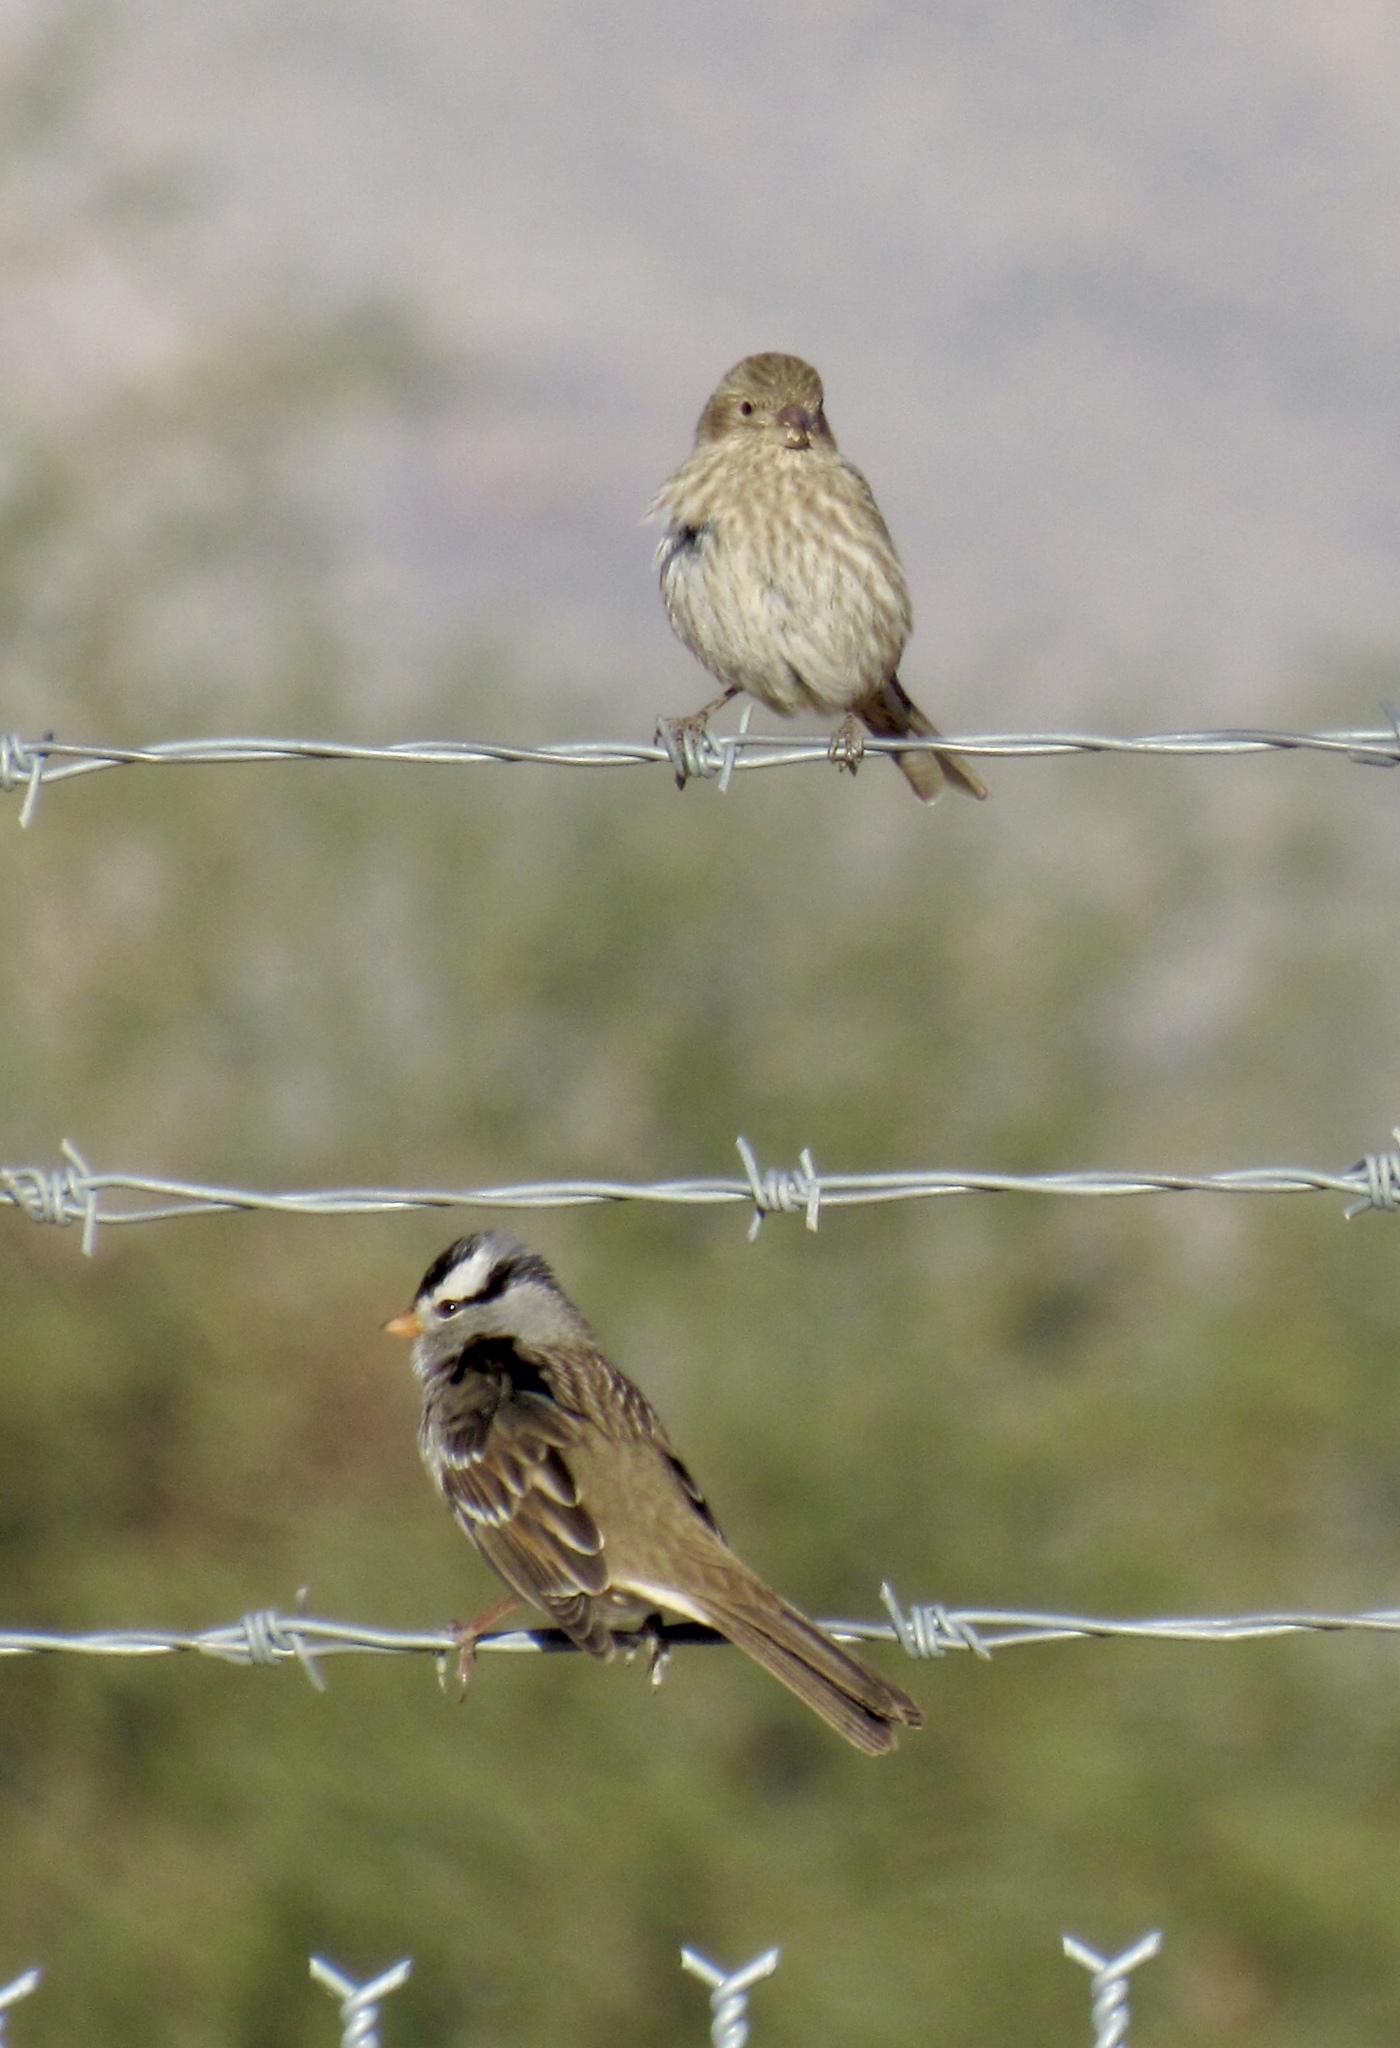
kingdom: Animalia
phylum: Chordata
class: Aves
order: Passeriformes
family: Fringillidae
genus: Haemorhous
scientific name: Haemorhous mexicanus
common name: House finch
